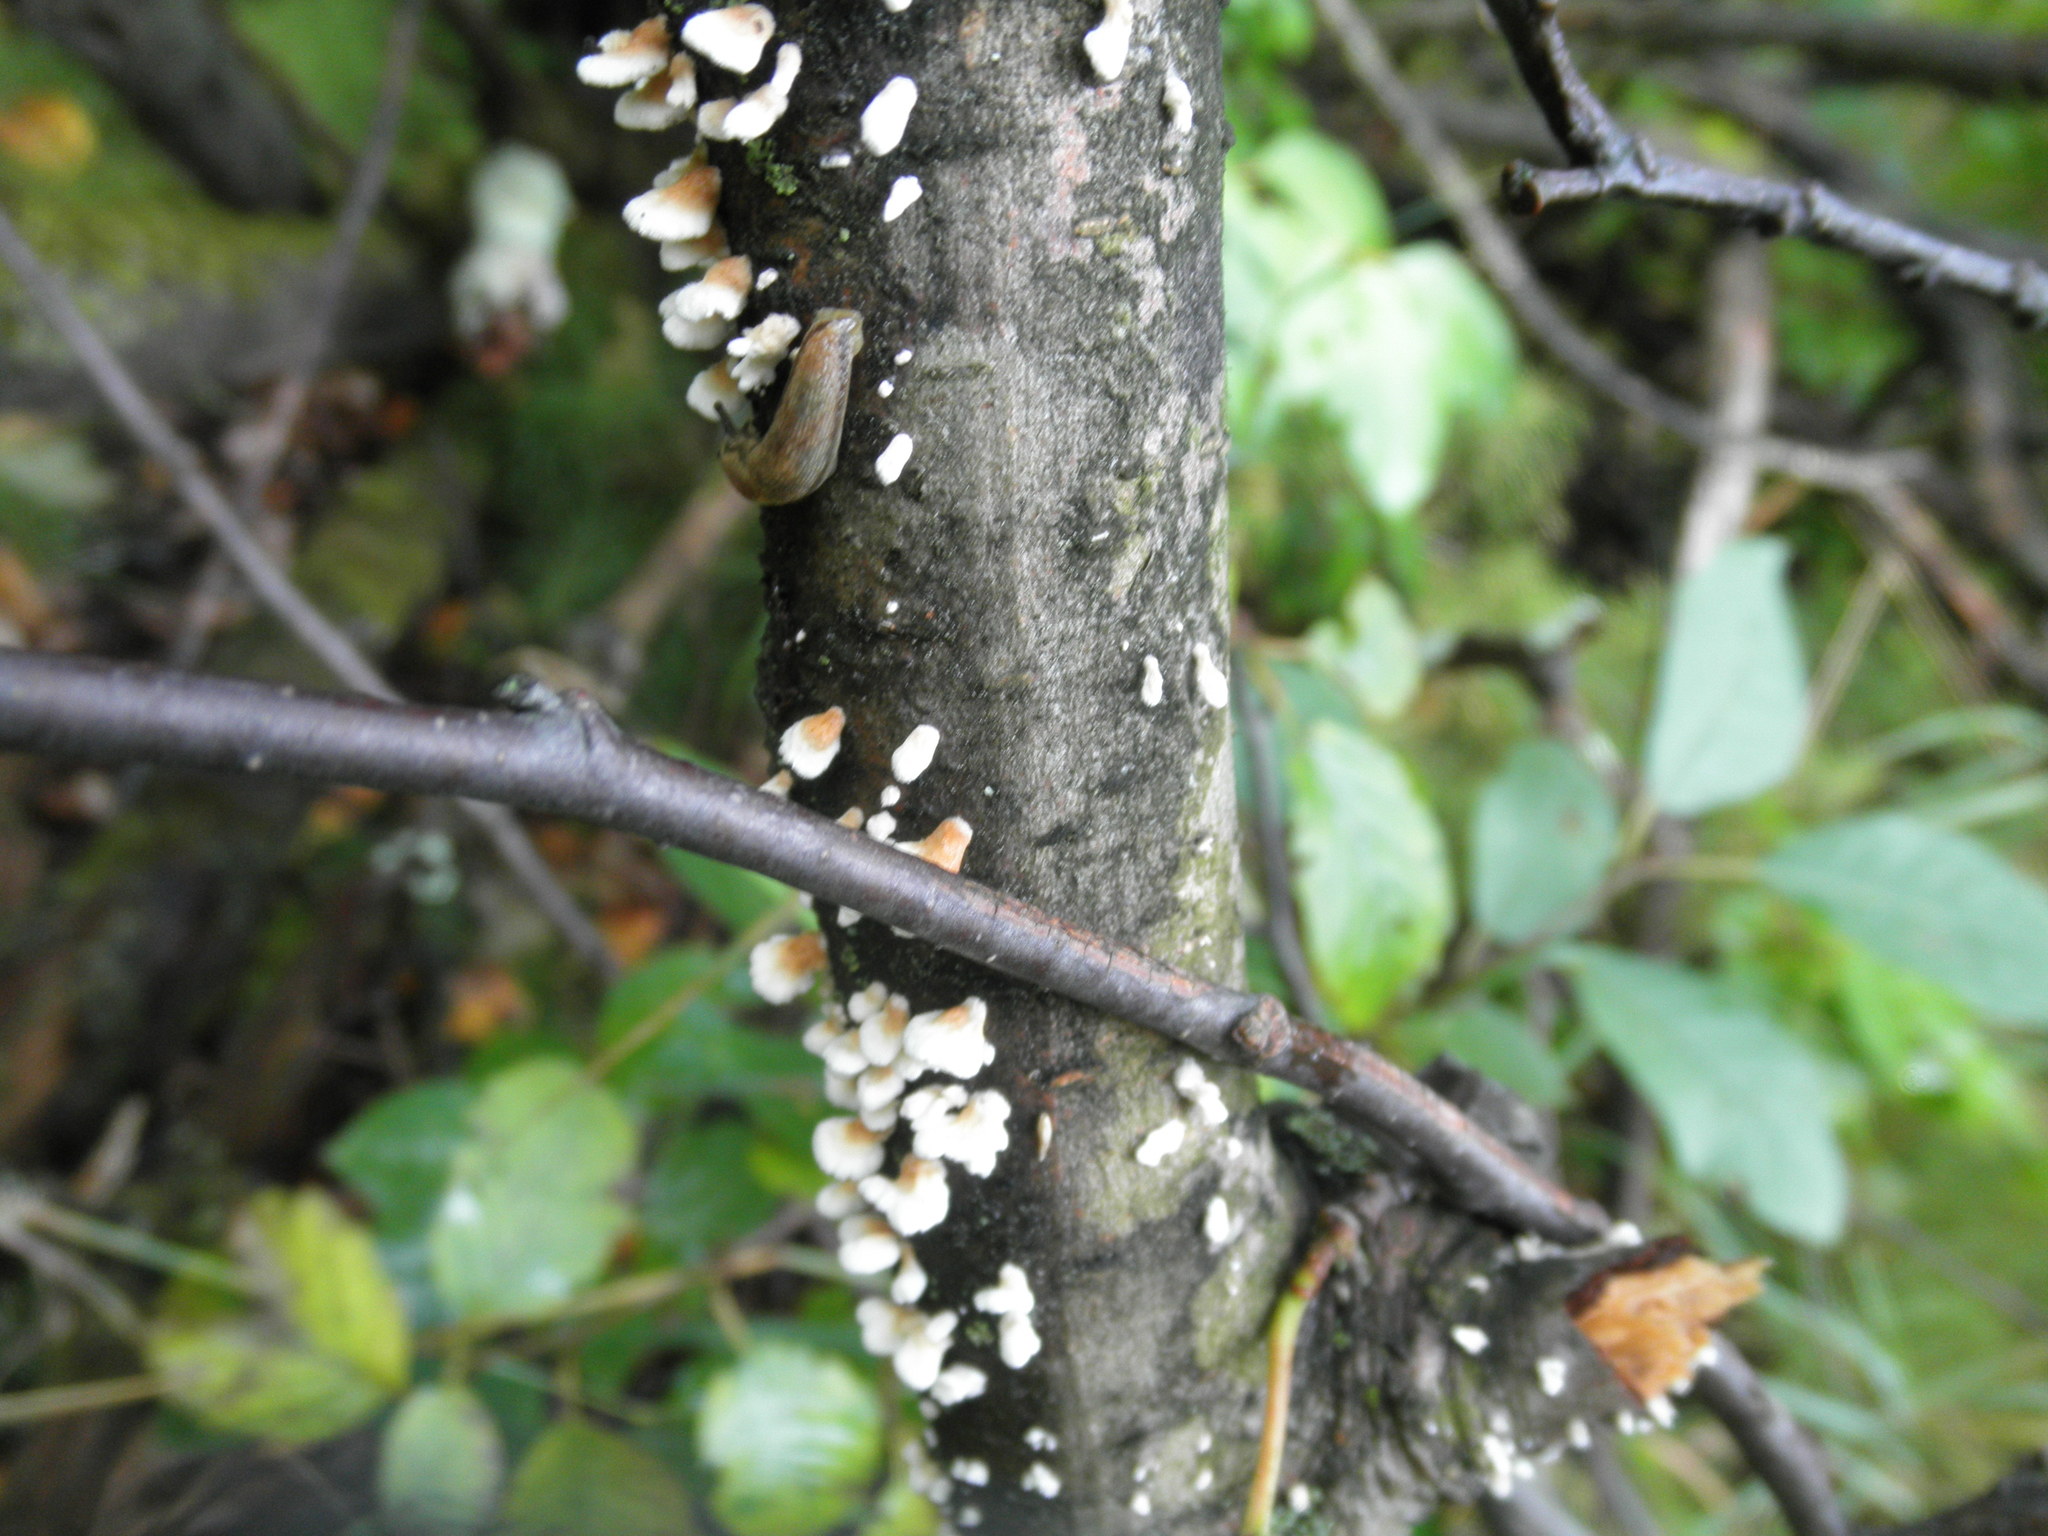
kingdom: Fungi
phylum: Basidiomycota
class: Agaricomycetes
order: Amylocorticiales
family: Amylocorticiaceae
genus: Plicaturopsis
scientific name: Plicaturopsis crispa
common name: Crimped gill
